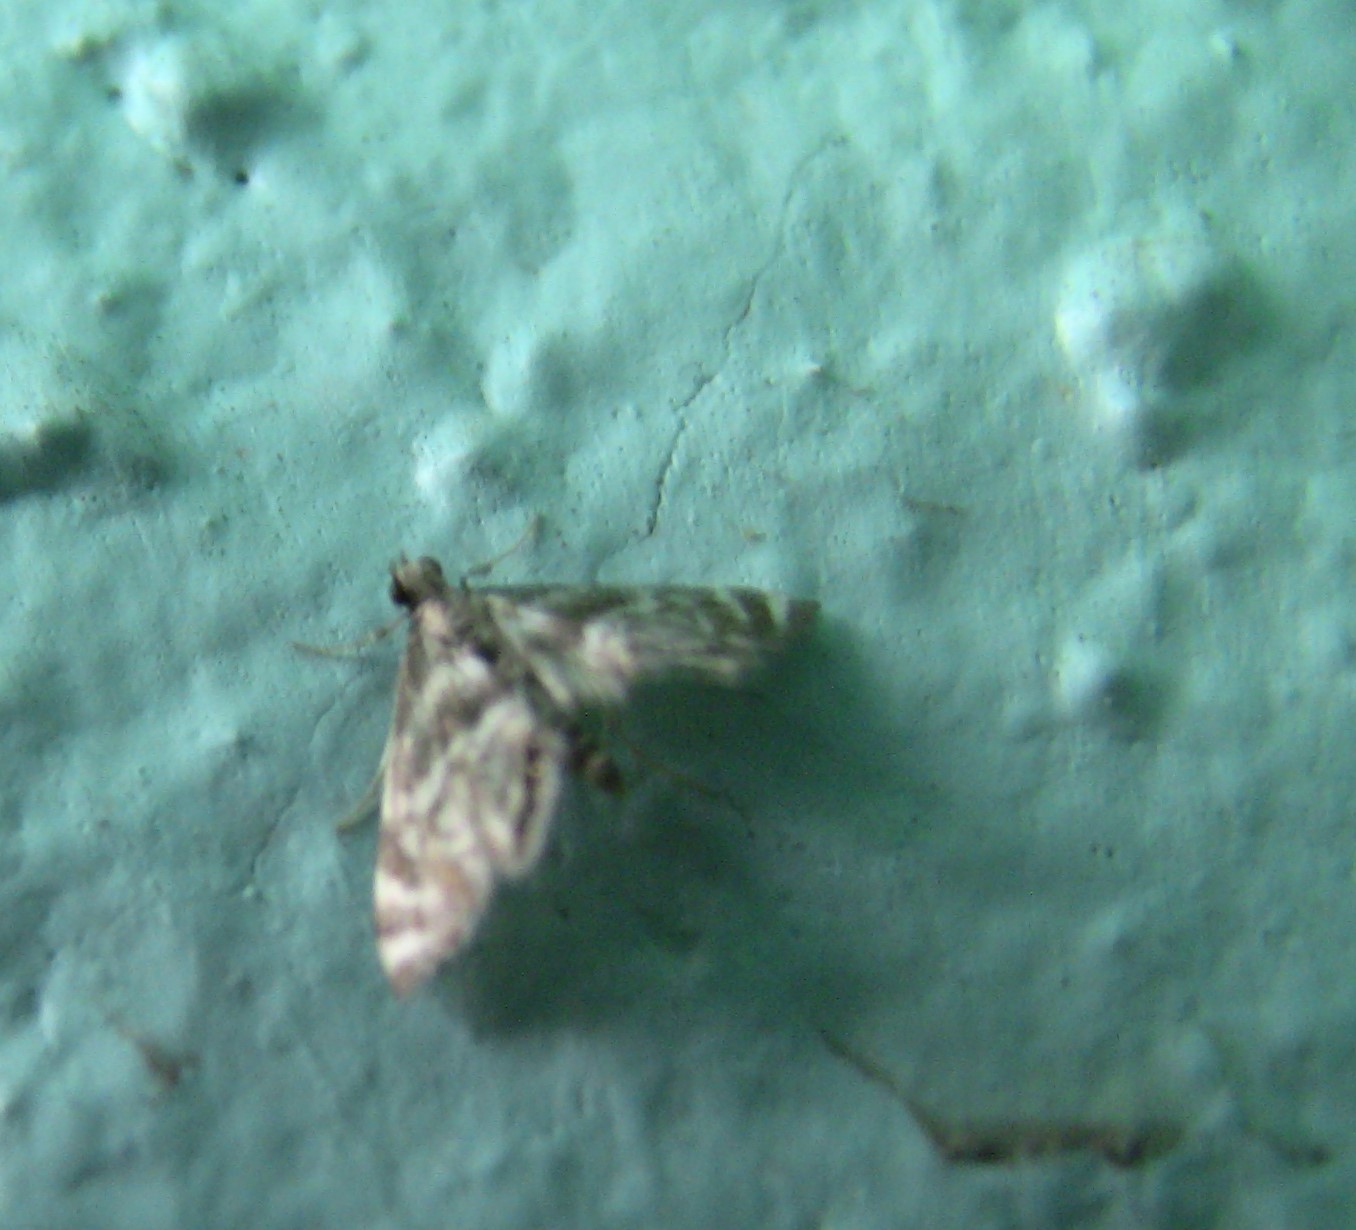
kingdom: Animalia
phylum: Arthropoda
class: Insecta
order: Lepidoptera
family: Crambidae
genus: Petrophila
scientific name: Petrophila canadensis
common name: Canadian petrophila
